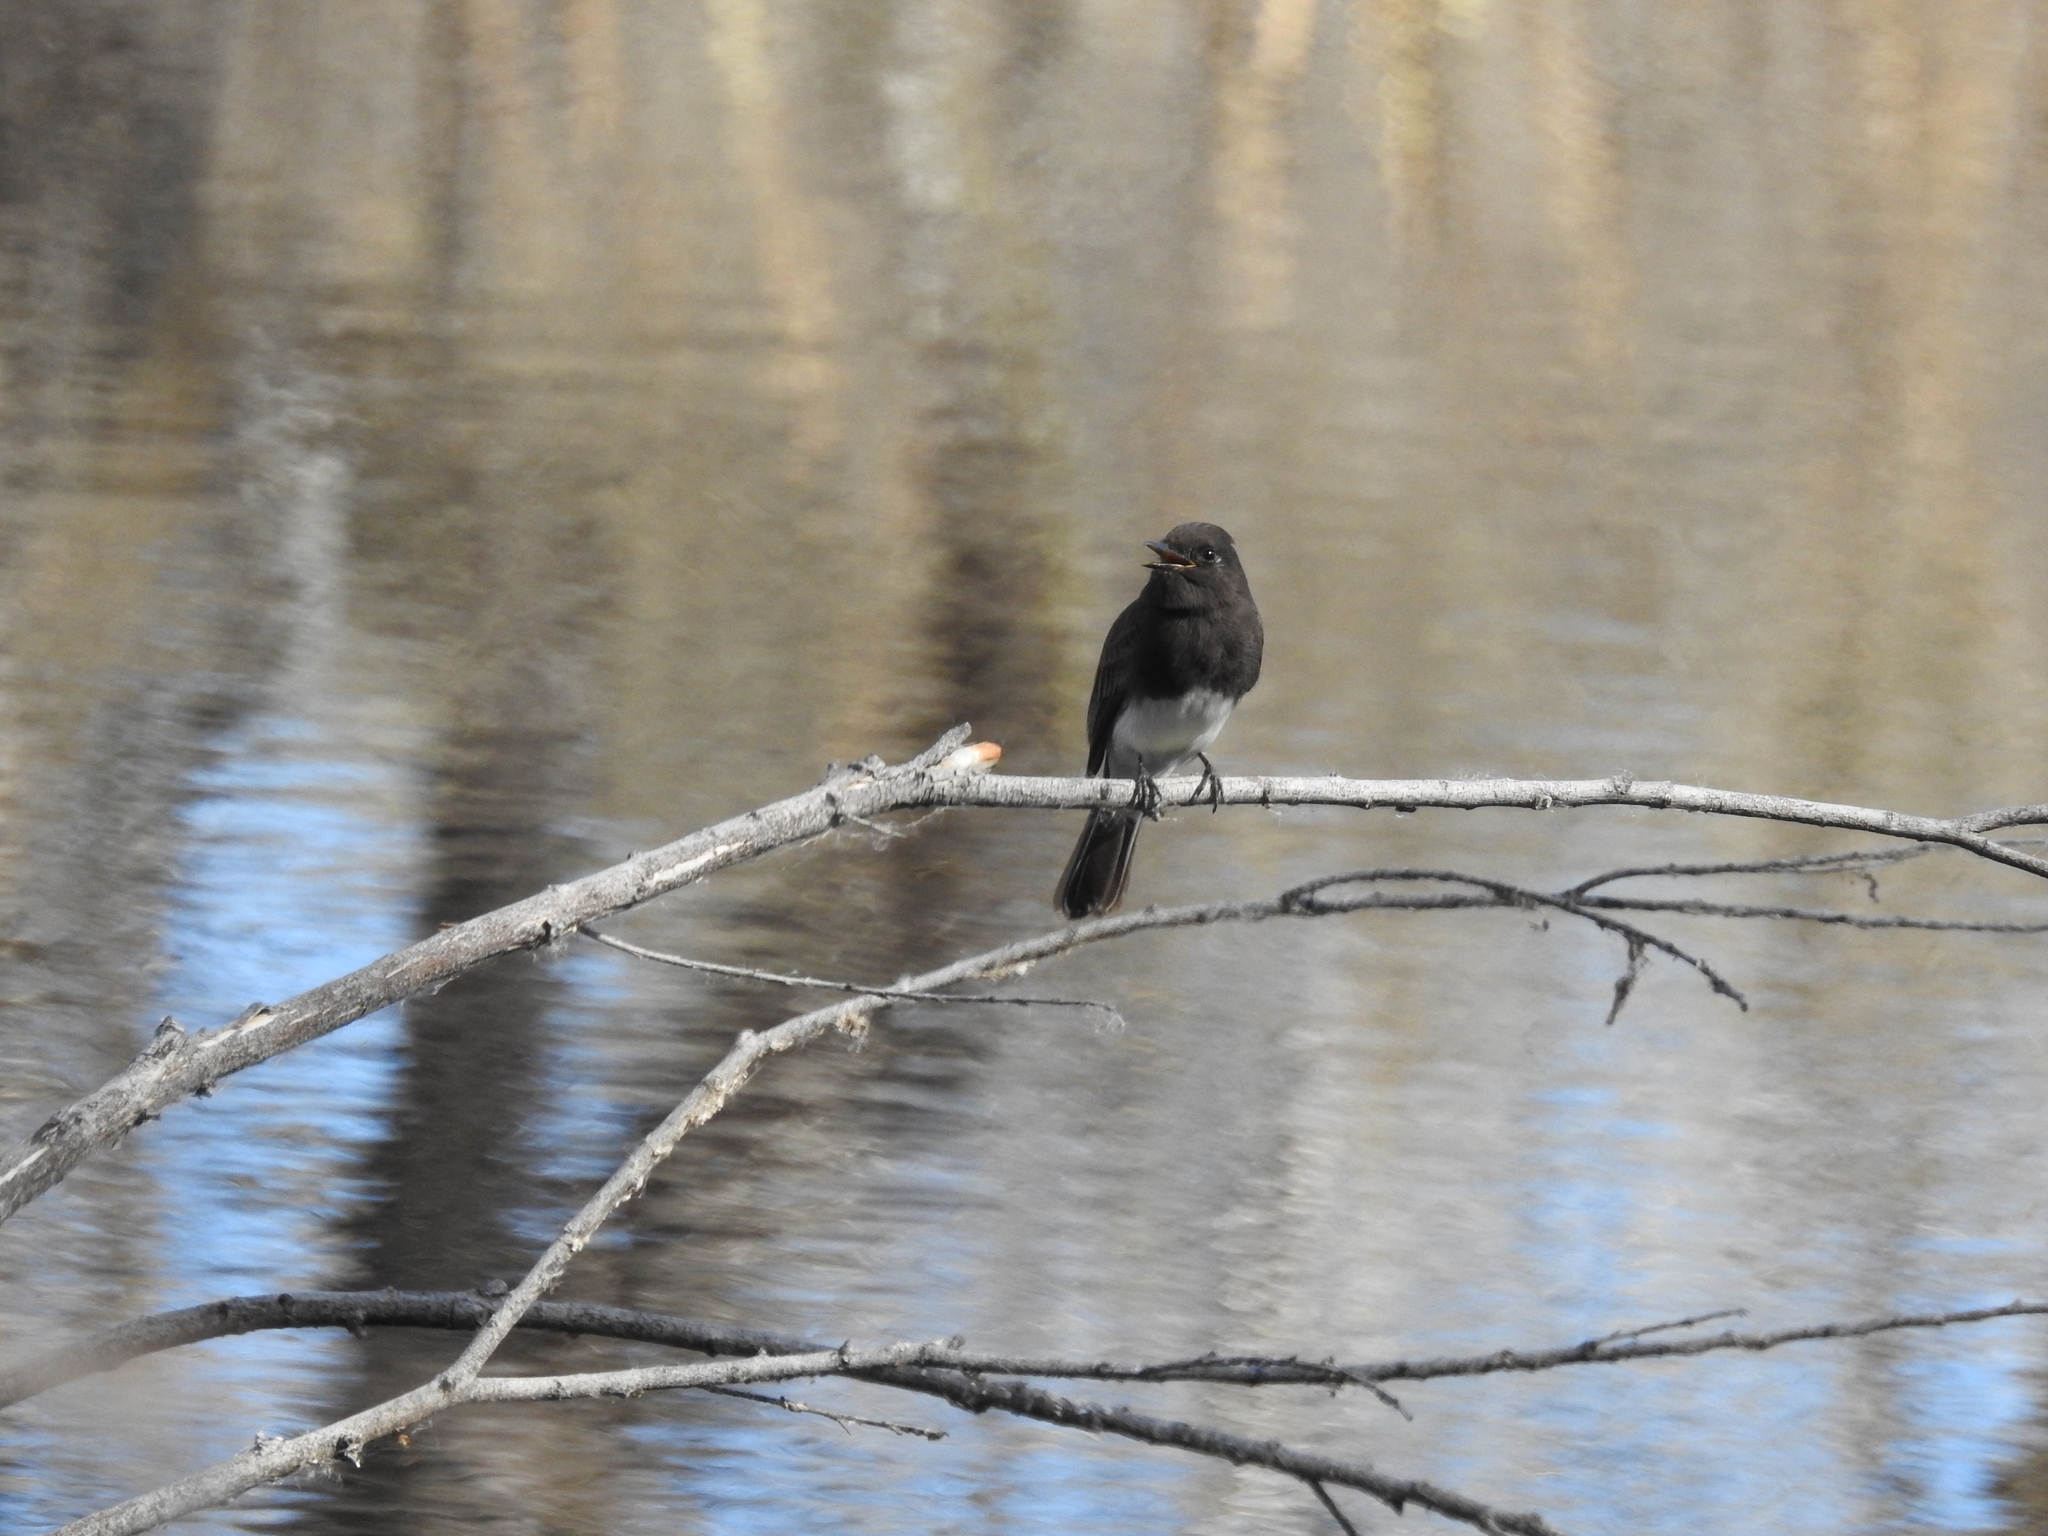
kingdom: Animalia
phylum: Chordata
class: Aves
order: Passeriformes
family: Tyrannidae
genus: Sayornis
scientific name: Sayornis nigricans
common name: Black phoebe
